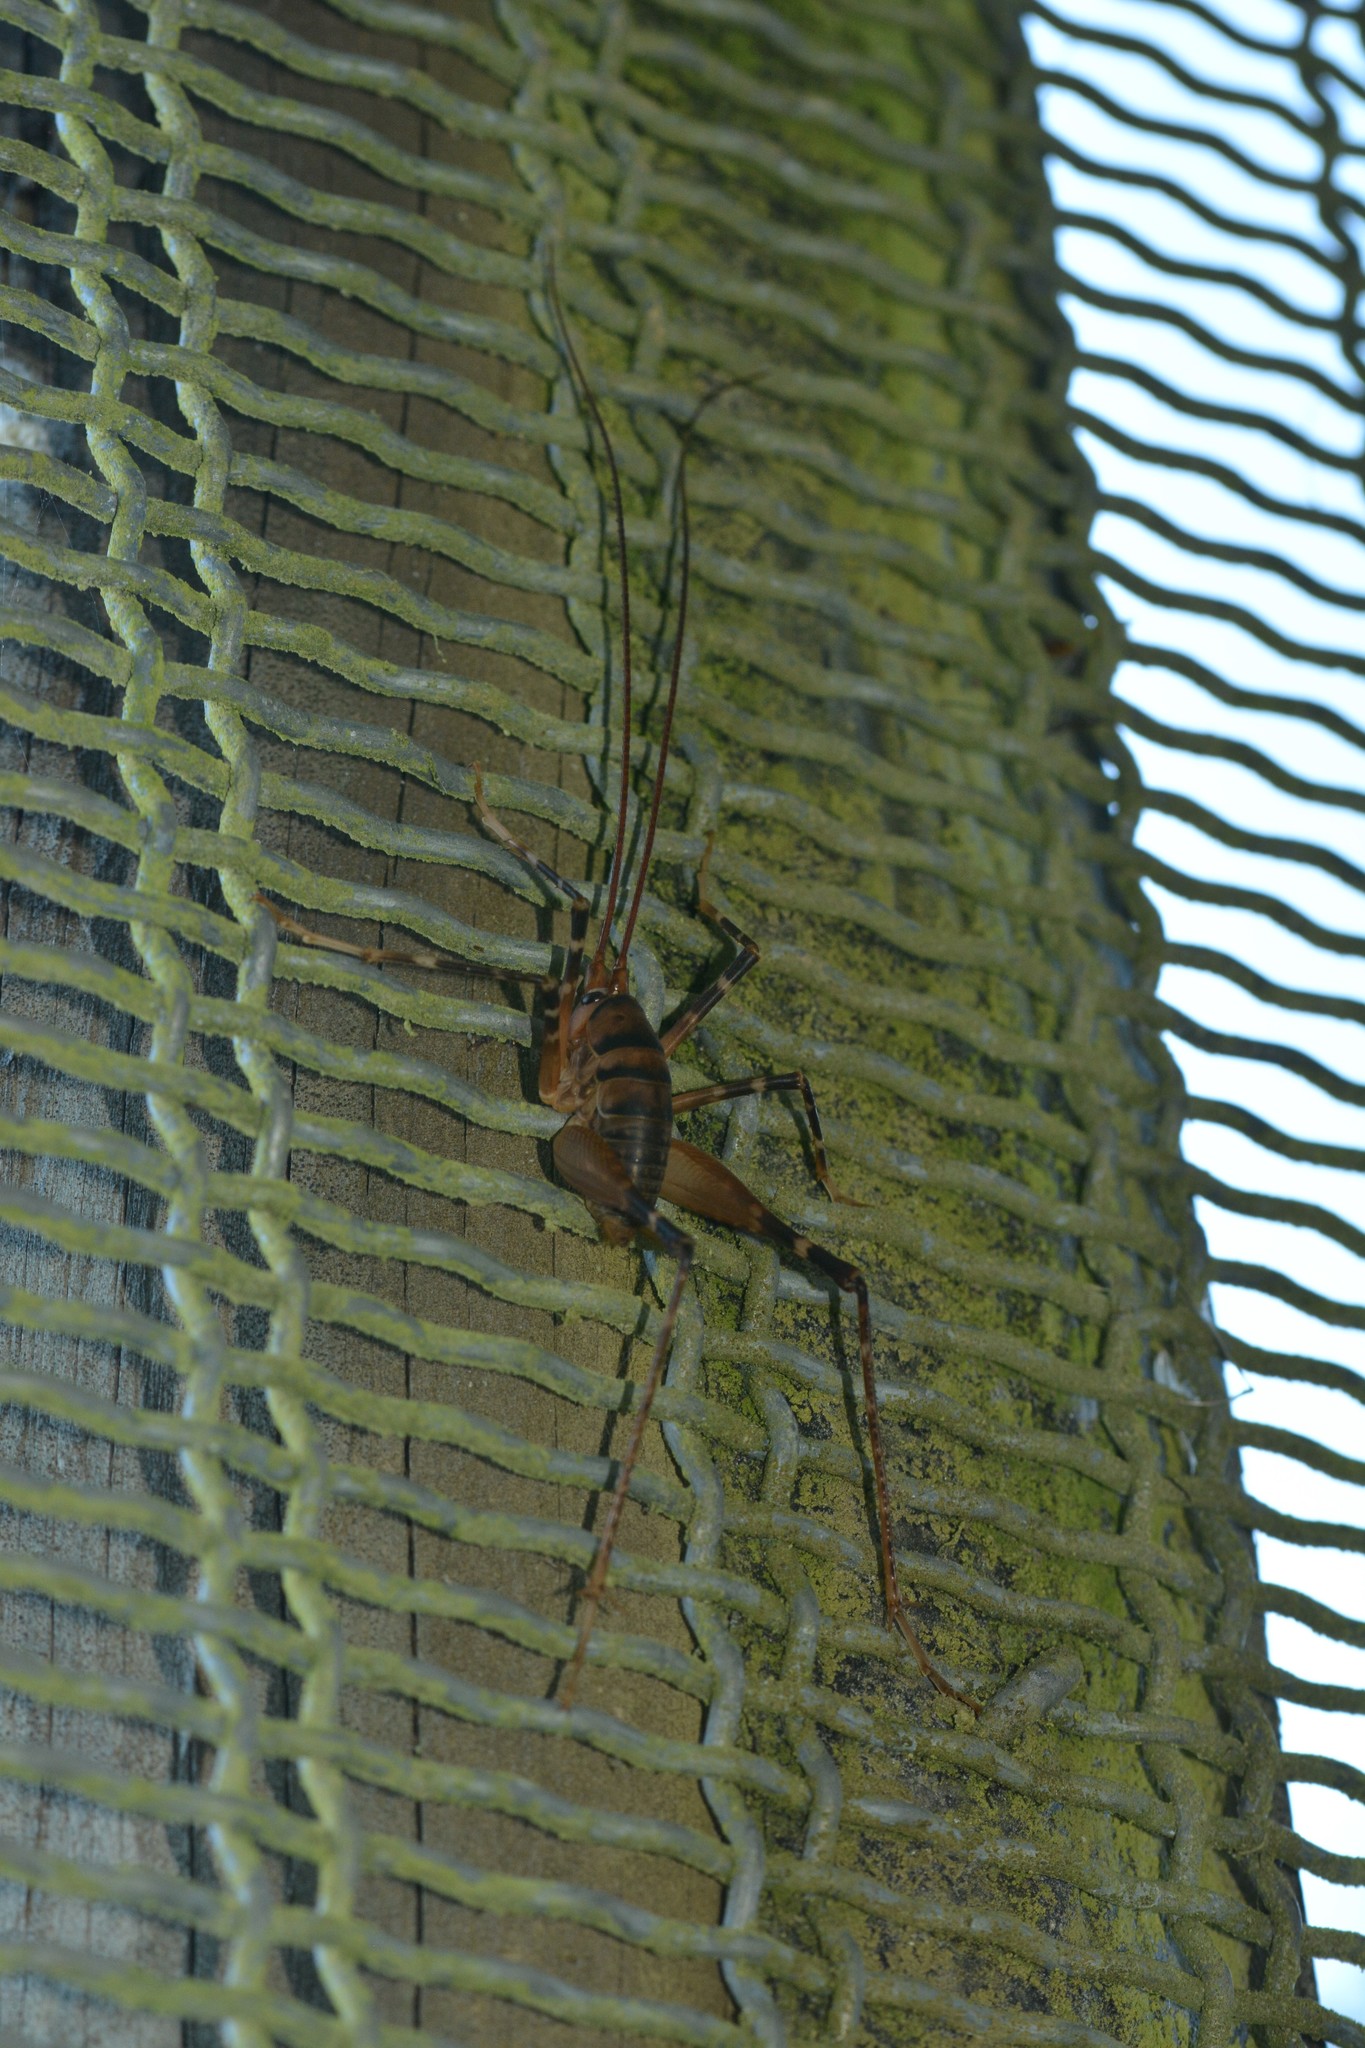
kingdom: Animalia
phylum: Arthropoda
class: Insecta
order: Orthoptera
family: Rhaphidophoridae
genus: Pachyrhamma
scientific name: Pachyrhamma edwardsii
